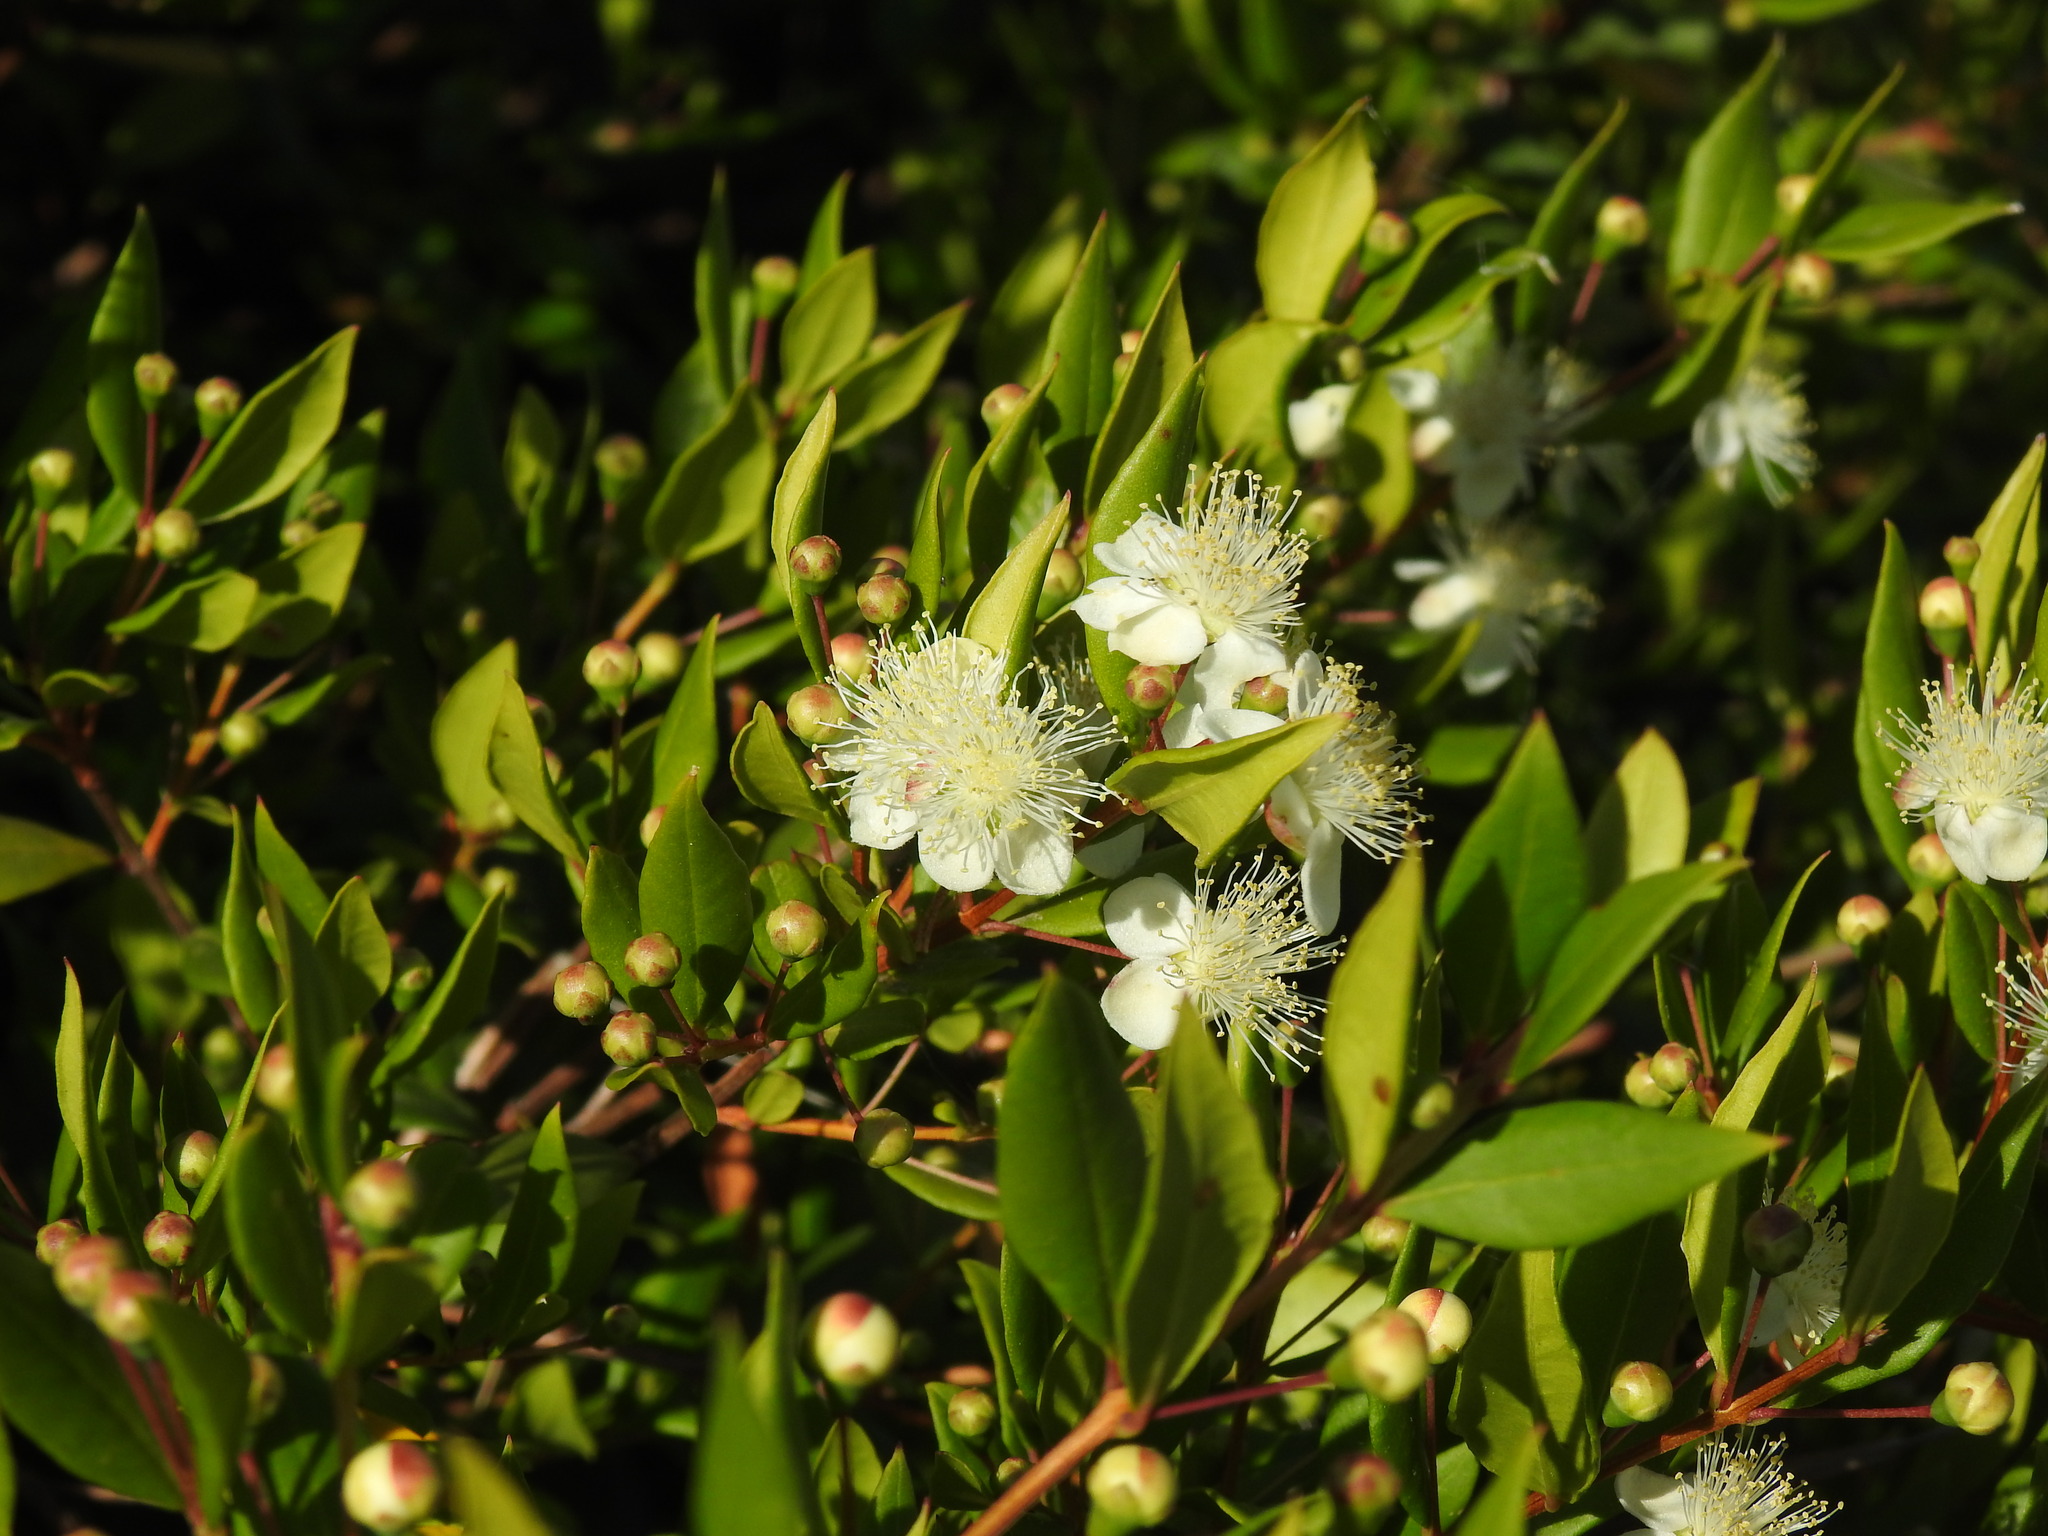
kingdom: Plantae
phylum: Tracheophyta
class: Magnoliopsida
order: Myrtales
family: Myrtaceae
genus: Myrtus
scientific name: Myrtus communis
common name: Myrtle
